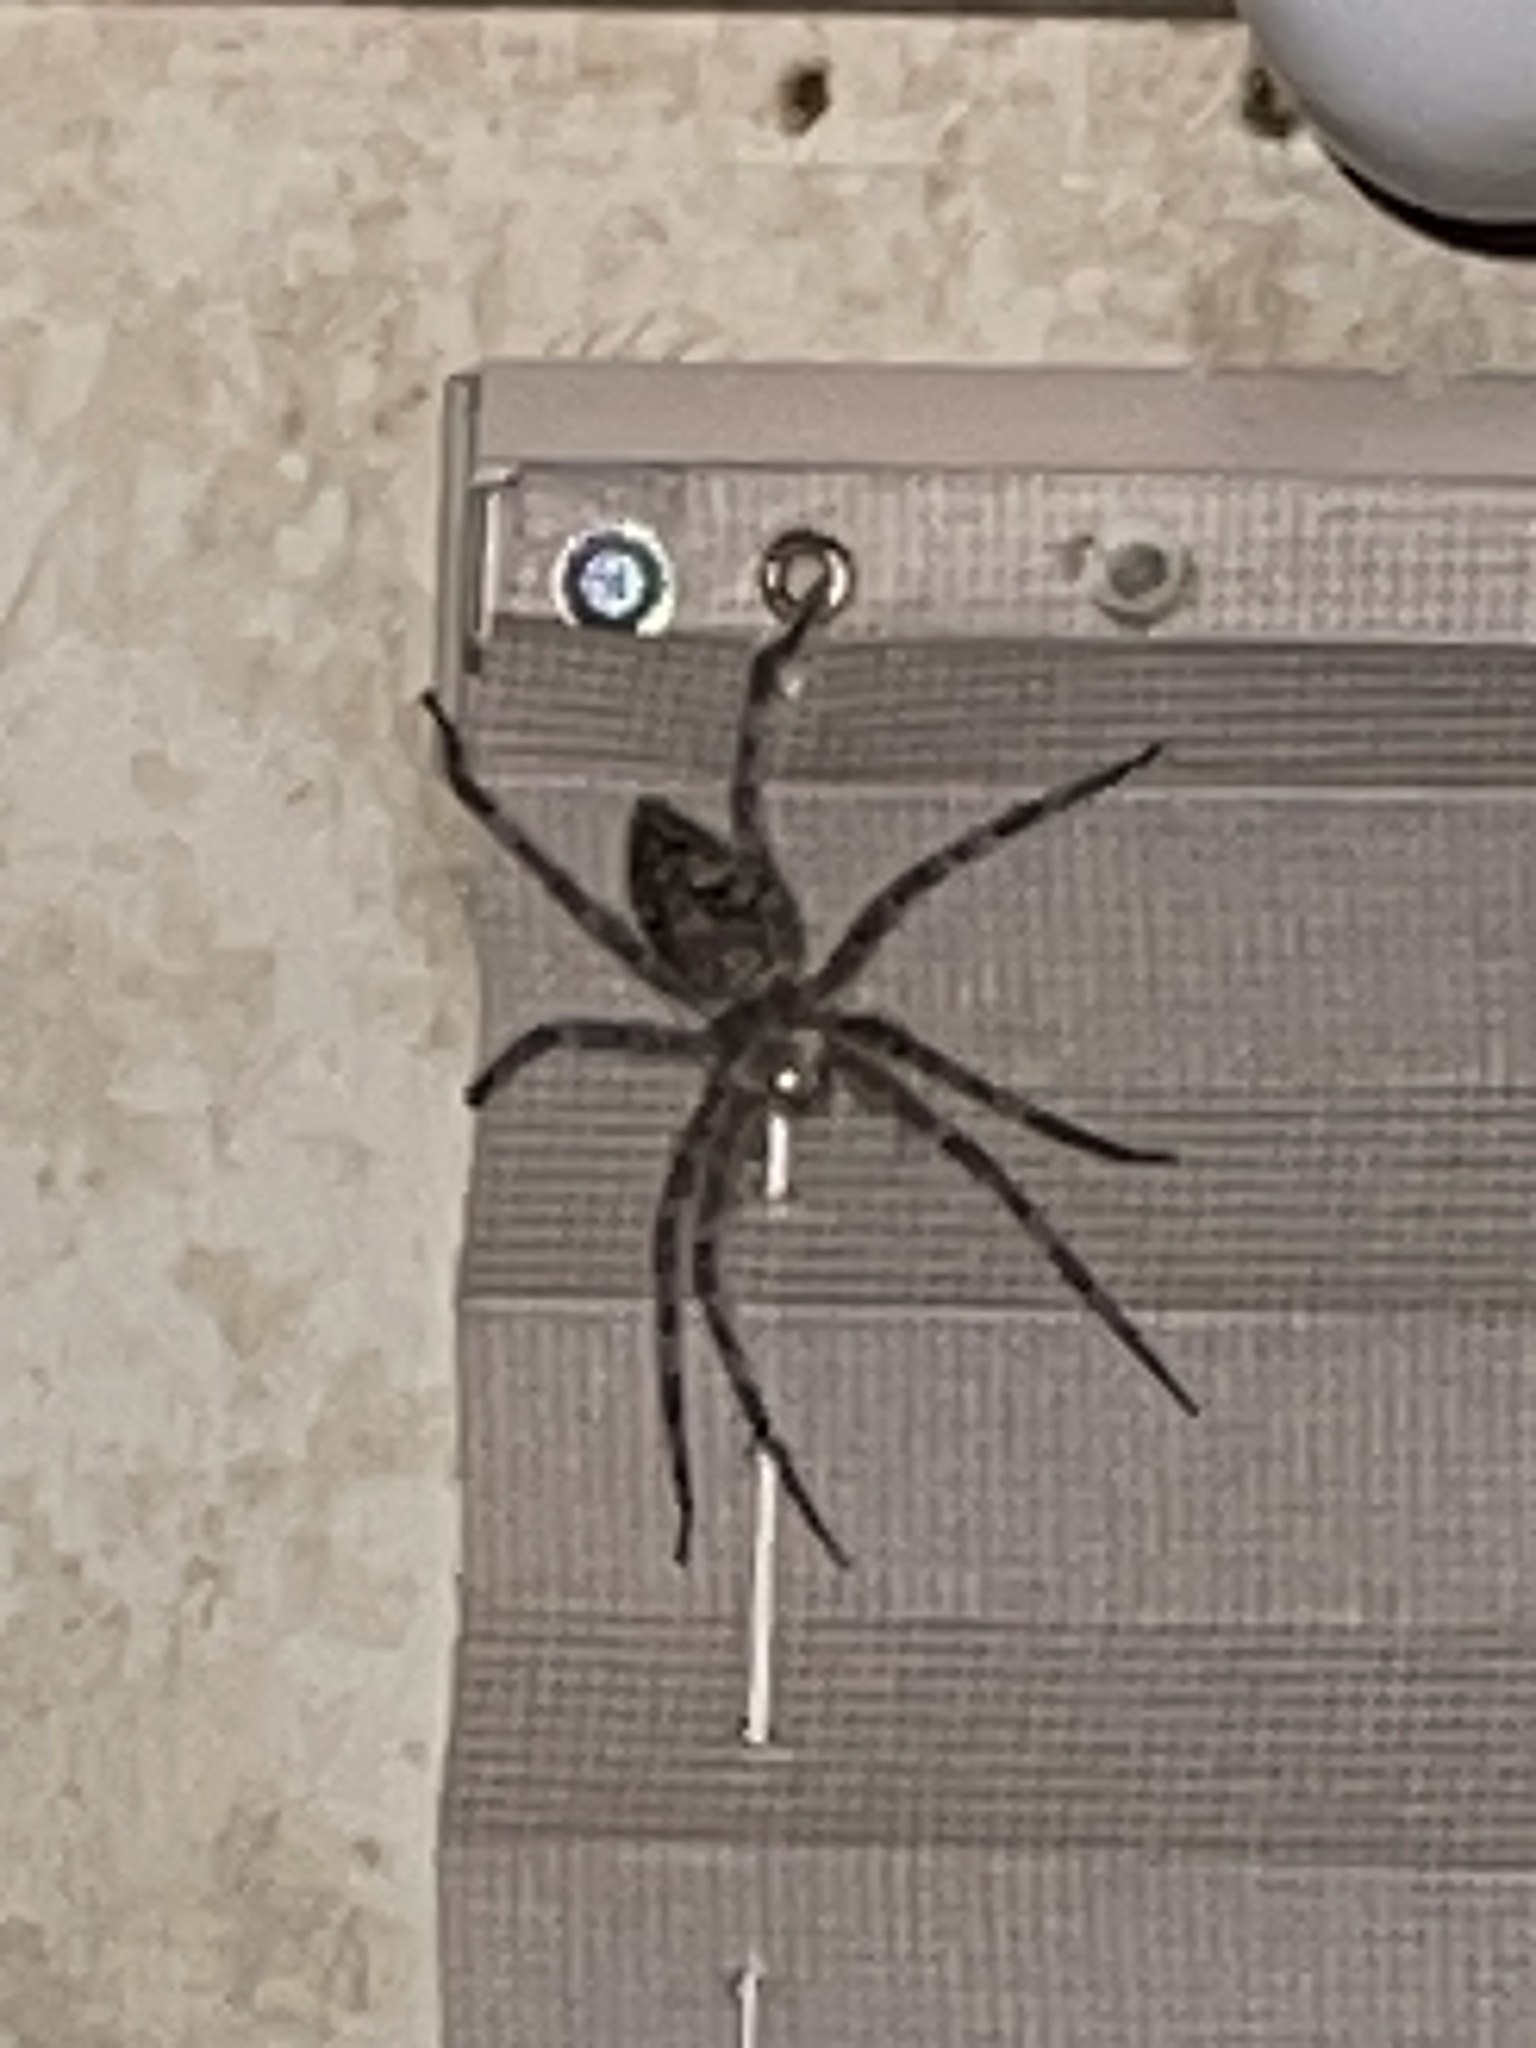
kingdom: Animalia
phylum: Arthropoda
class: Arachnida
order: Araneae
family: Pisauridae
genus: Dolomedes
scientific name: Dolomedes albineus
